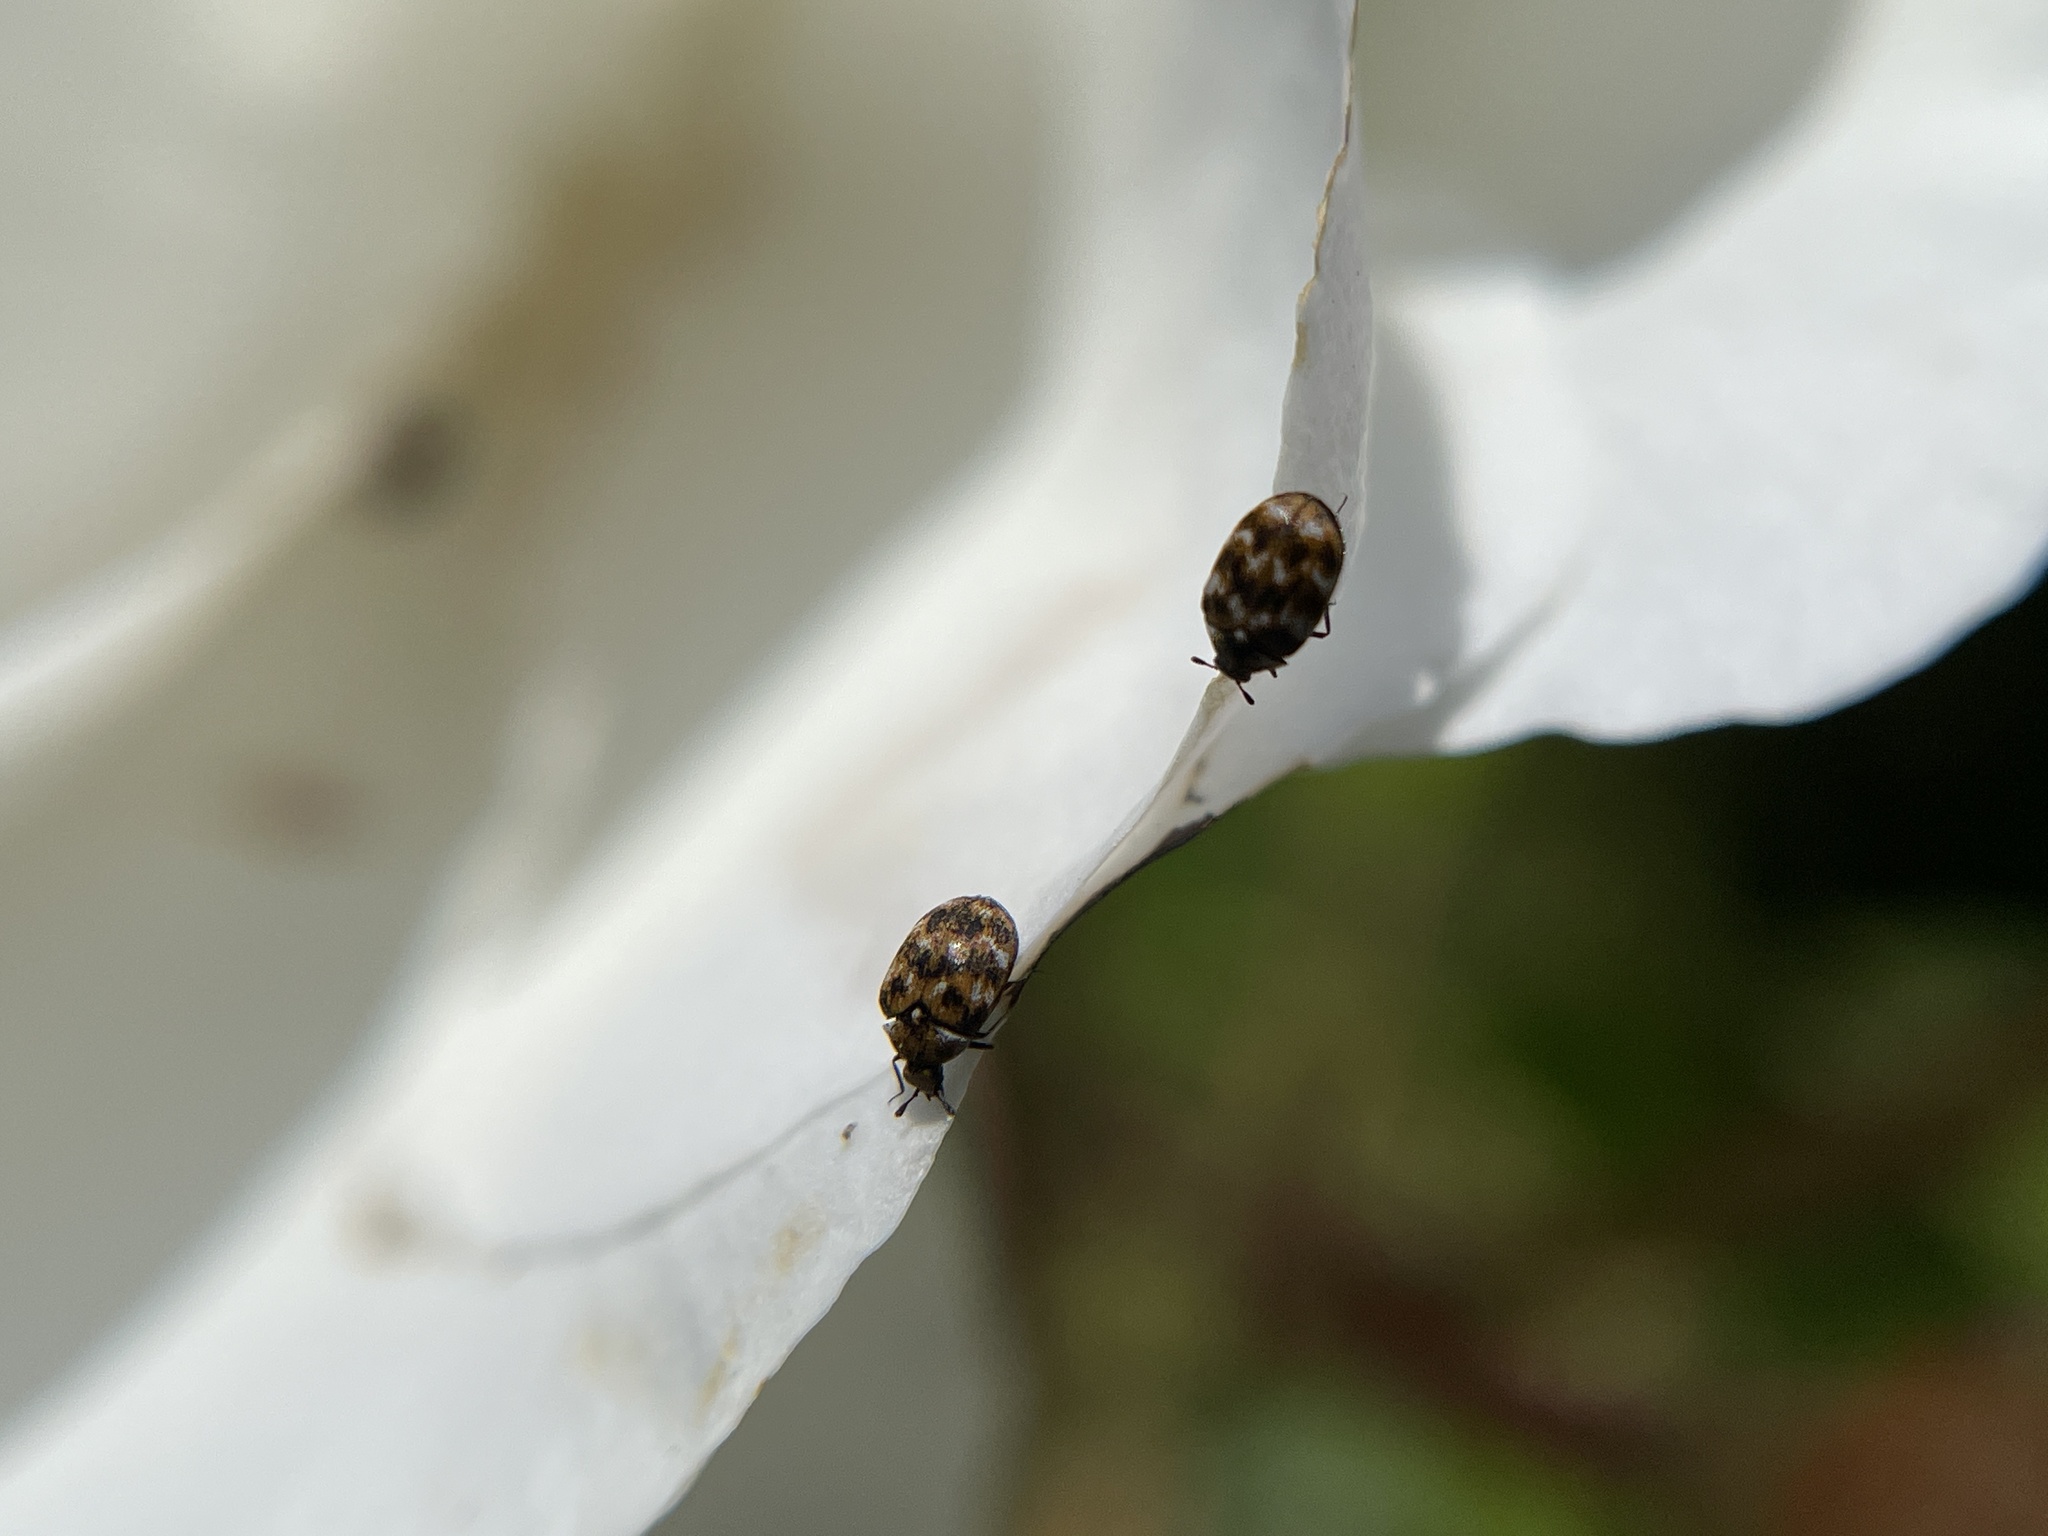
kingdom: Animalia
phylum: Arthropoda
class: Insecta
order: Coleoptera
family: Dermestidae
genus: Anthrenus
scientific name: Anthrenus verbasci
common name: Varied carpet beetle
